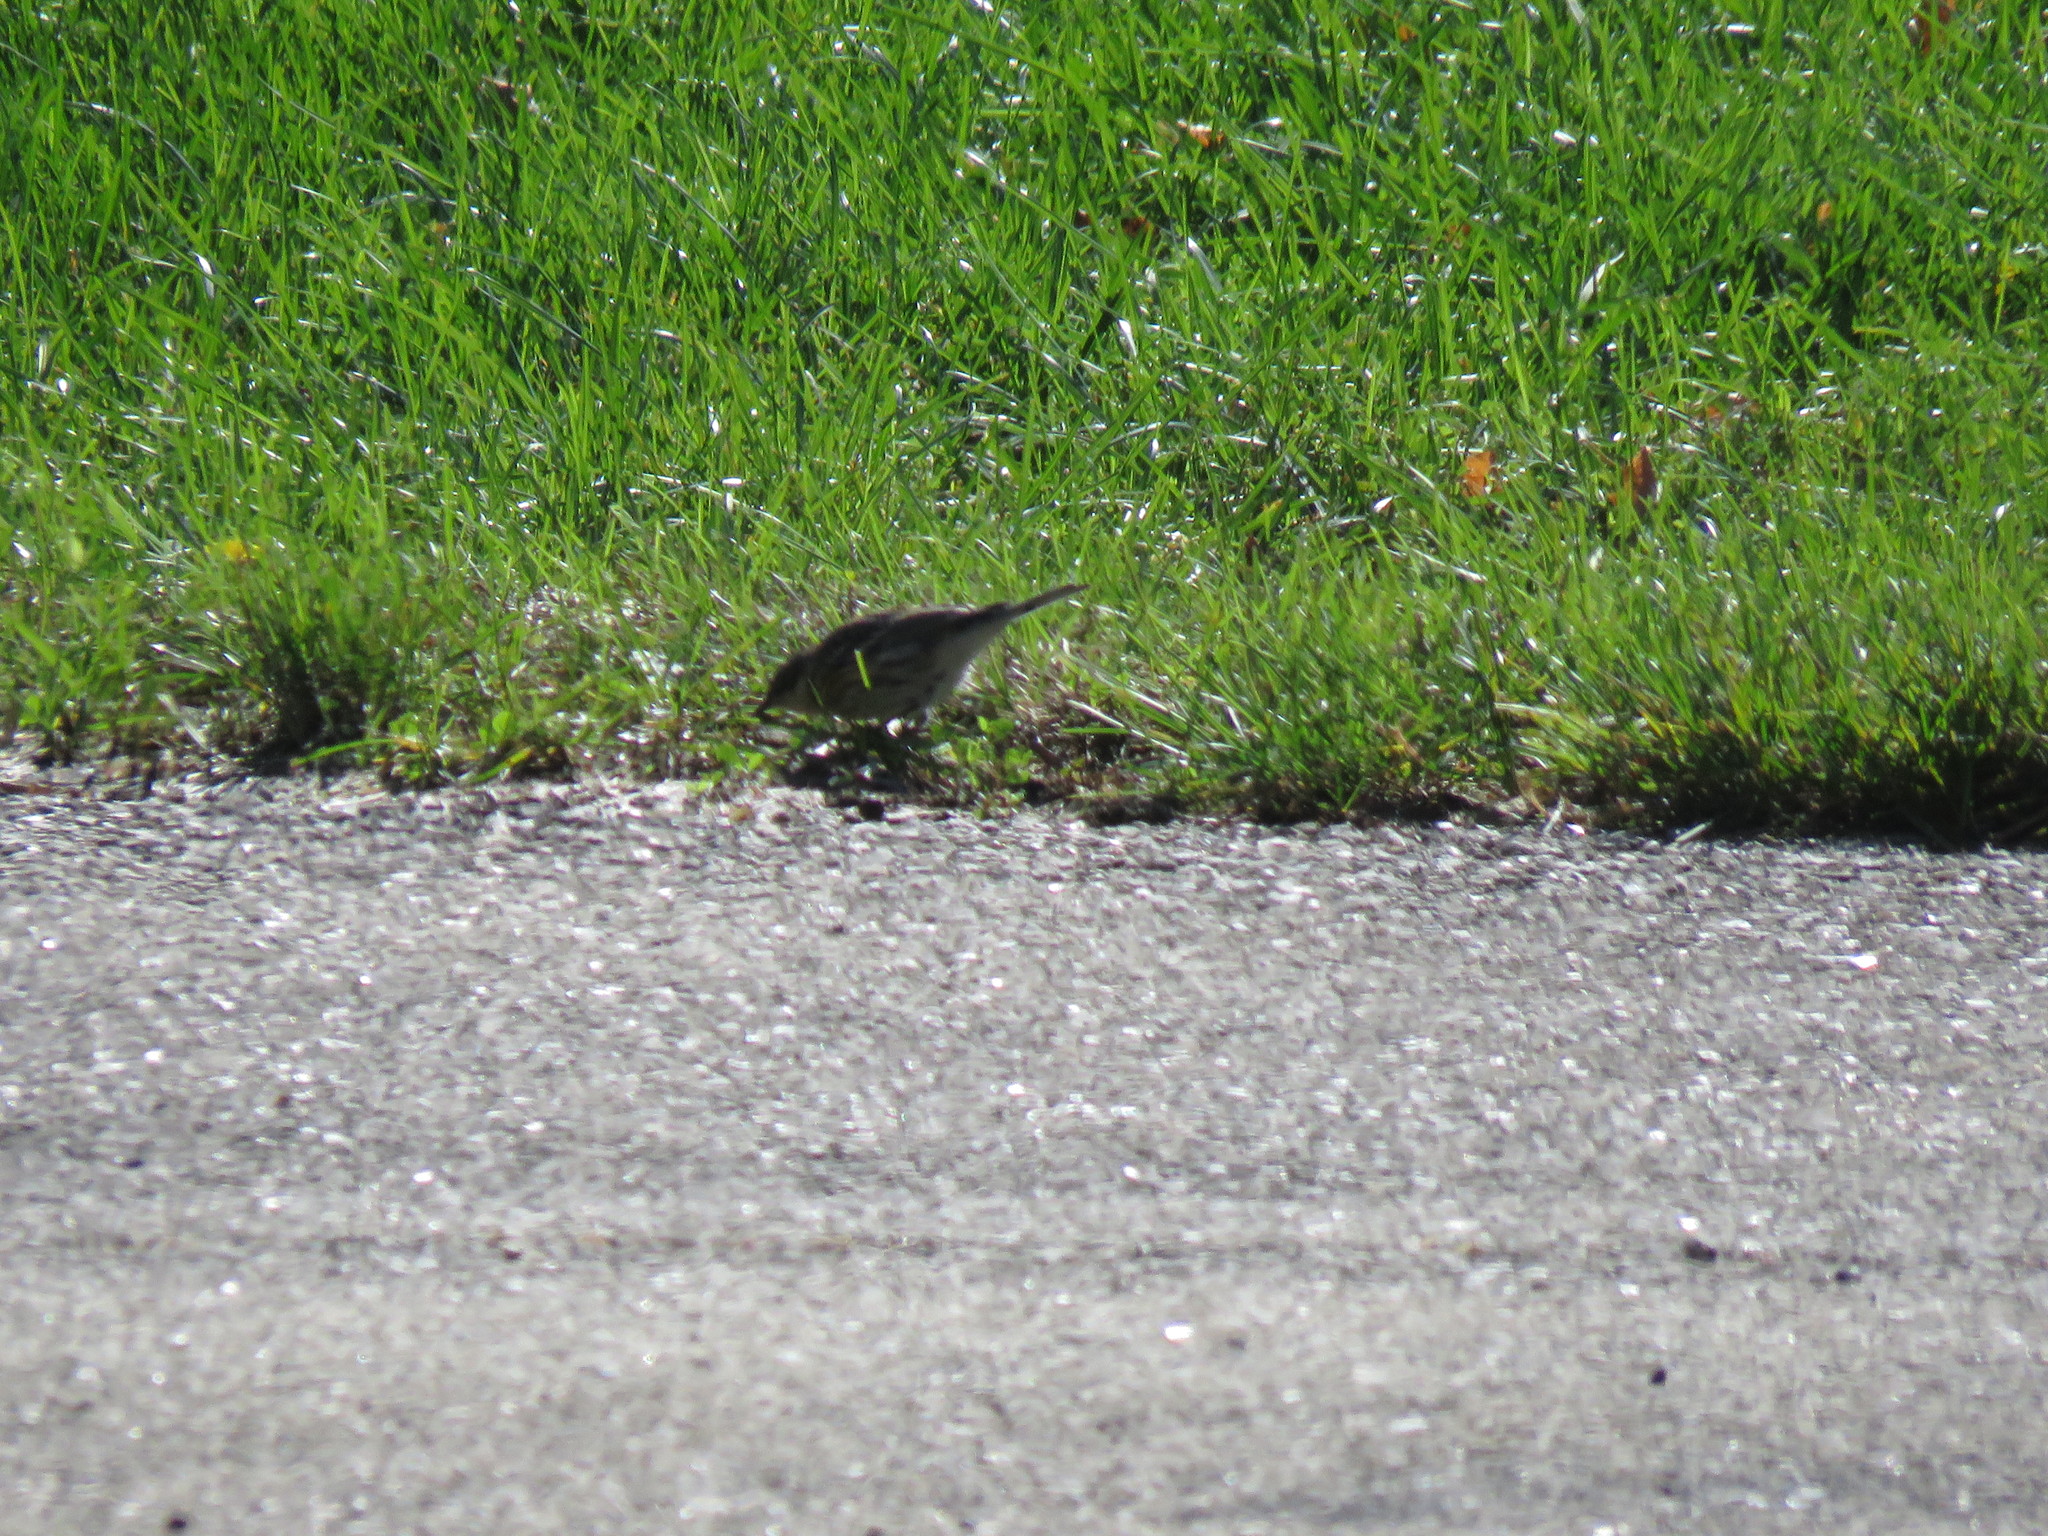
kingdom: Animalia
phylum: Chordata
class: Aves
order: Passeriformes
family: Parulidae
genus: Setophaga
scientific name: Setophaga coronata
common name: Myrtle warbler
